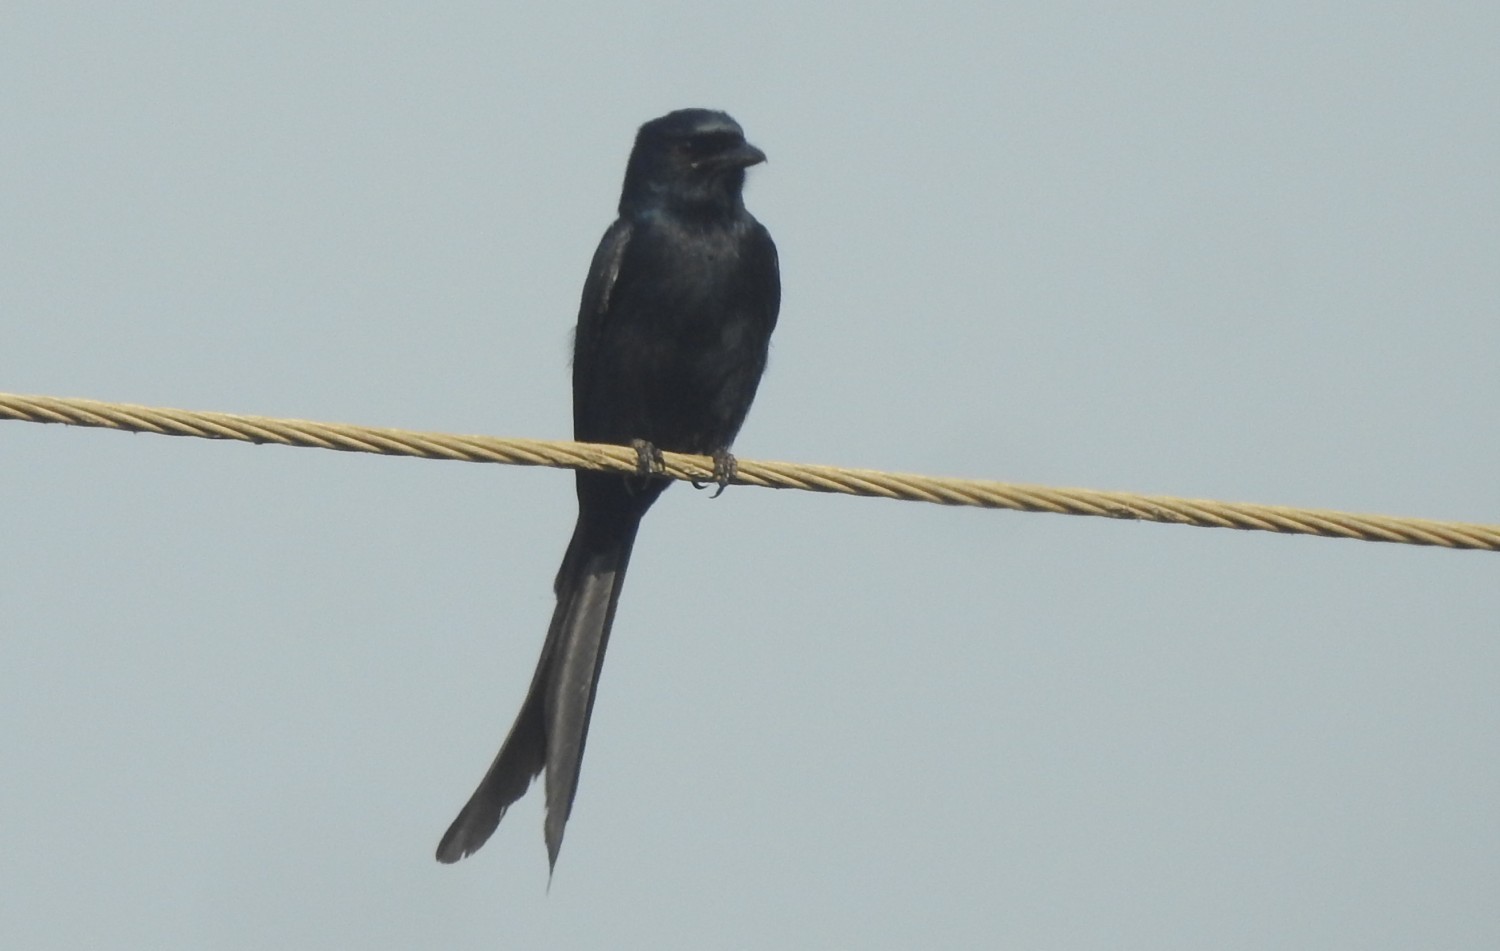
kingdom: Animalia
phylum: Chordata
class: Aves
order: Passeriformes
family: Dicruridae
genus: Dicrurus
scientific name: Dicrurus macrocercus
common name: Black drongo
